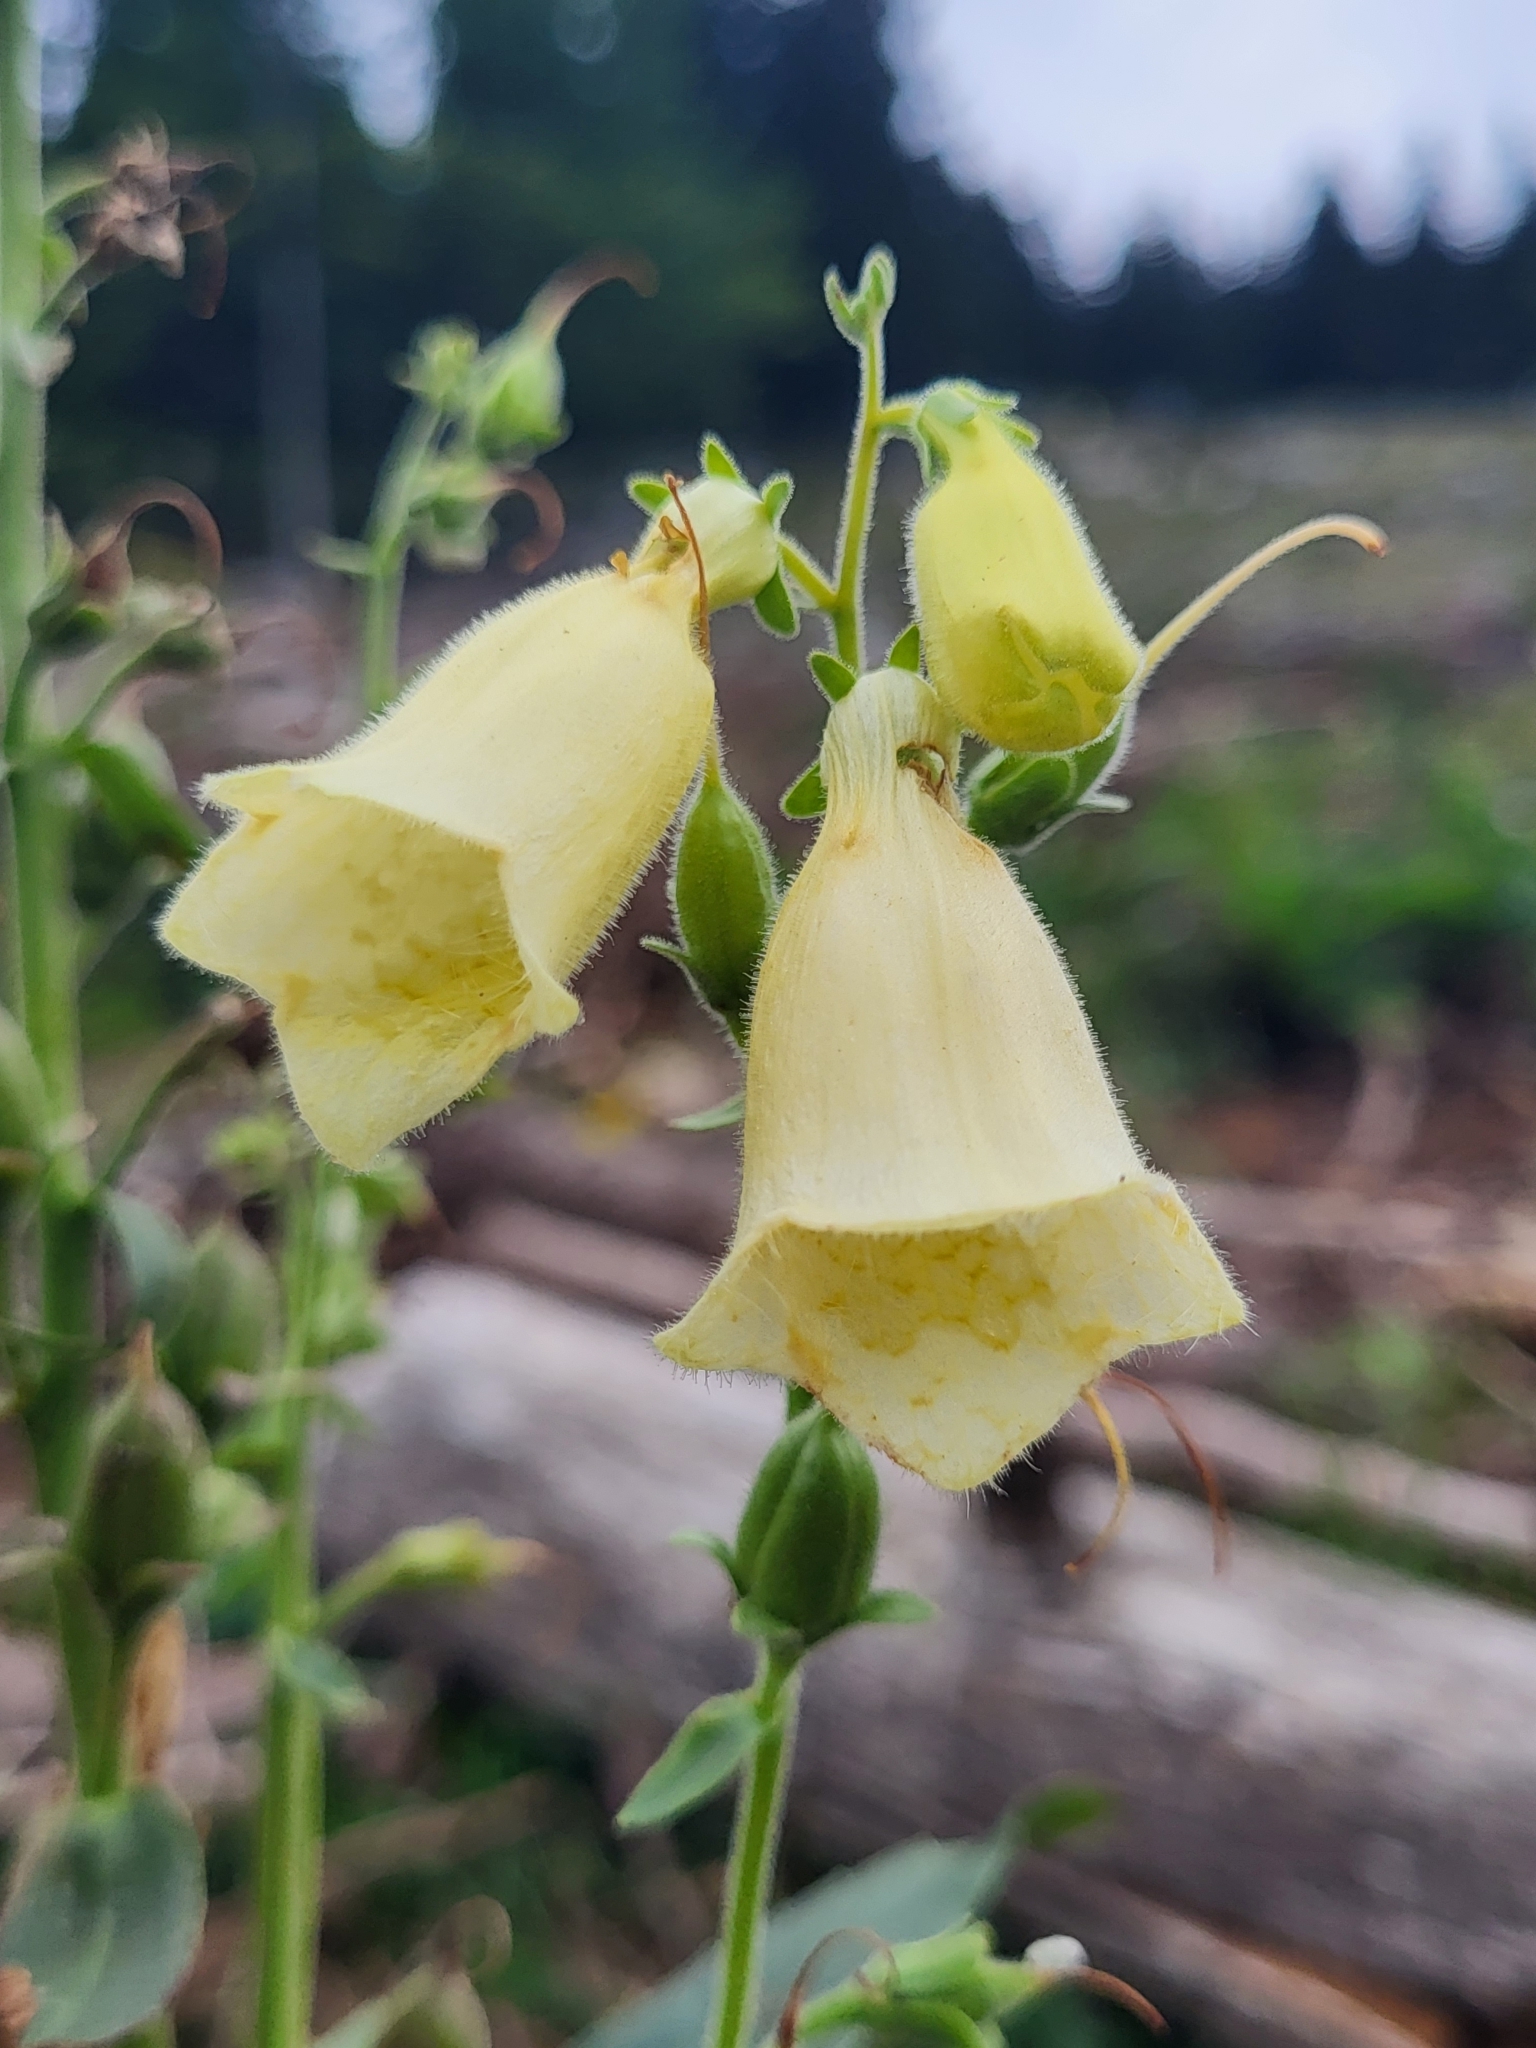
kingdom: Plantae
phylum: Tracheophyta
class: Magnoliopsida
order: Lamiales
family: Plantaginaceae
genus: Digitalis
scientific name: Digitalis grandiflora
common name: Yellow foxglove
